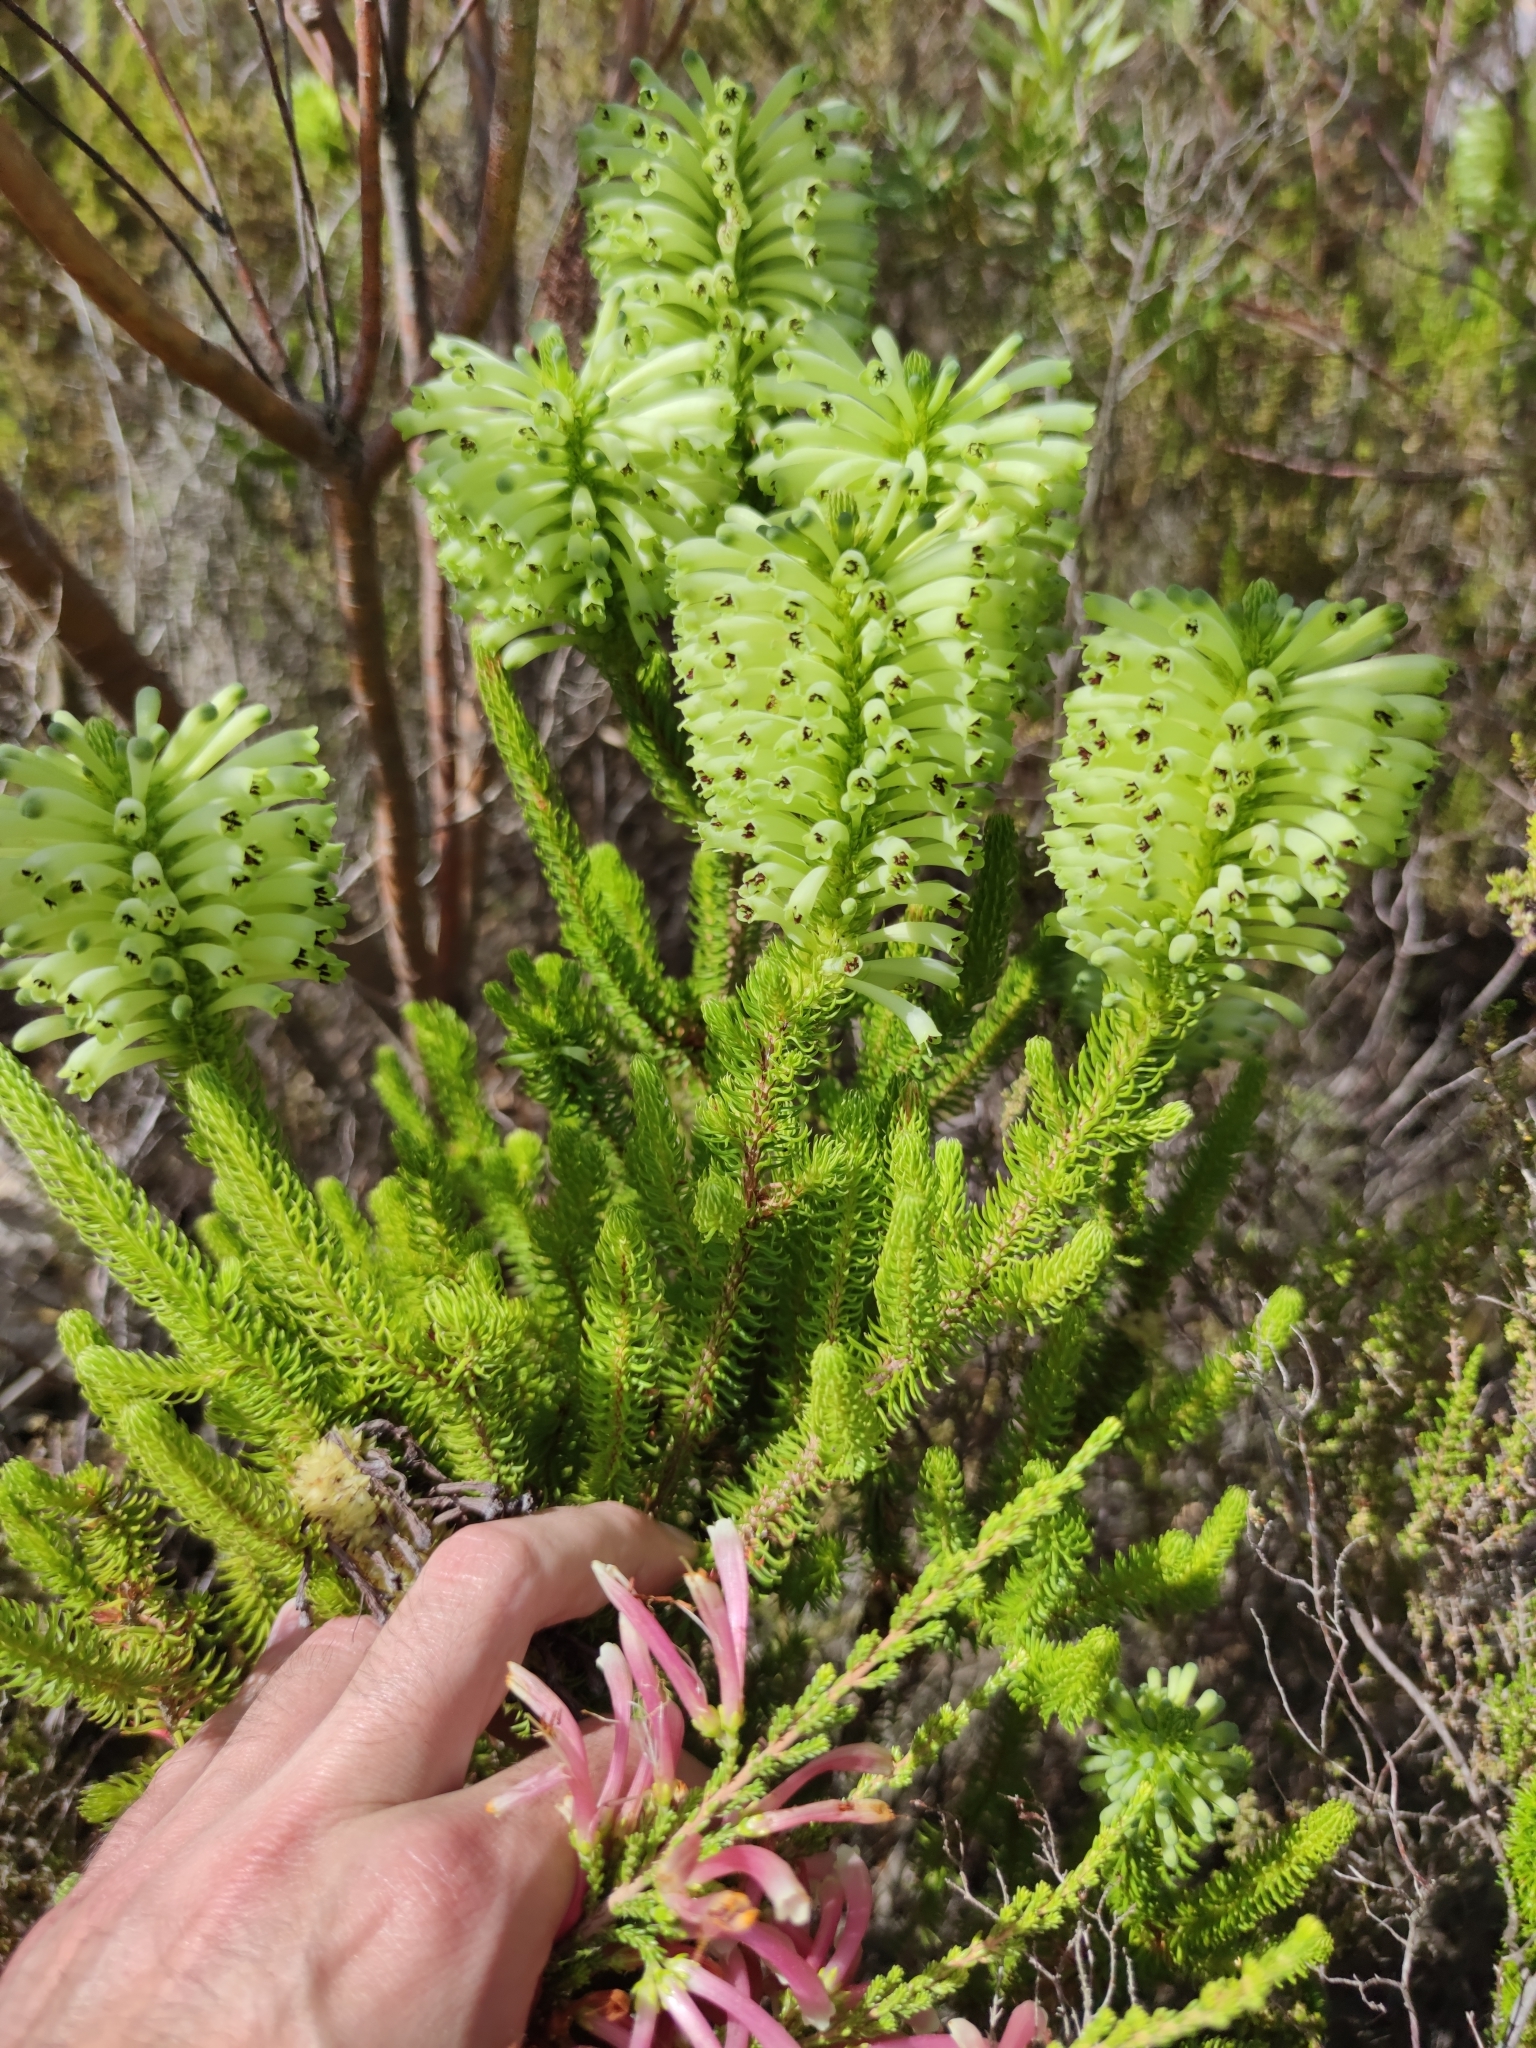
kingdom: Plantae
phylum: Tracheophyta
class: Magnoliopsida
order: Ericales
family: Ericaceae
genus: Erica
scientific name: Erica sessiliflora
